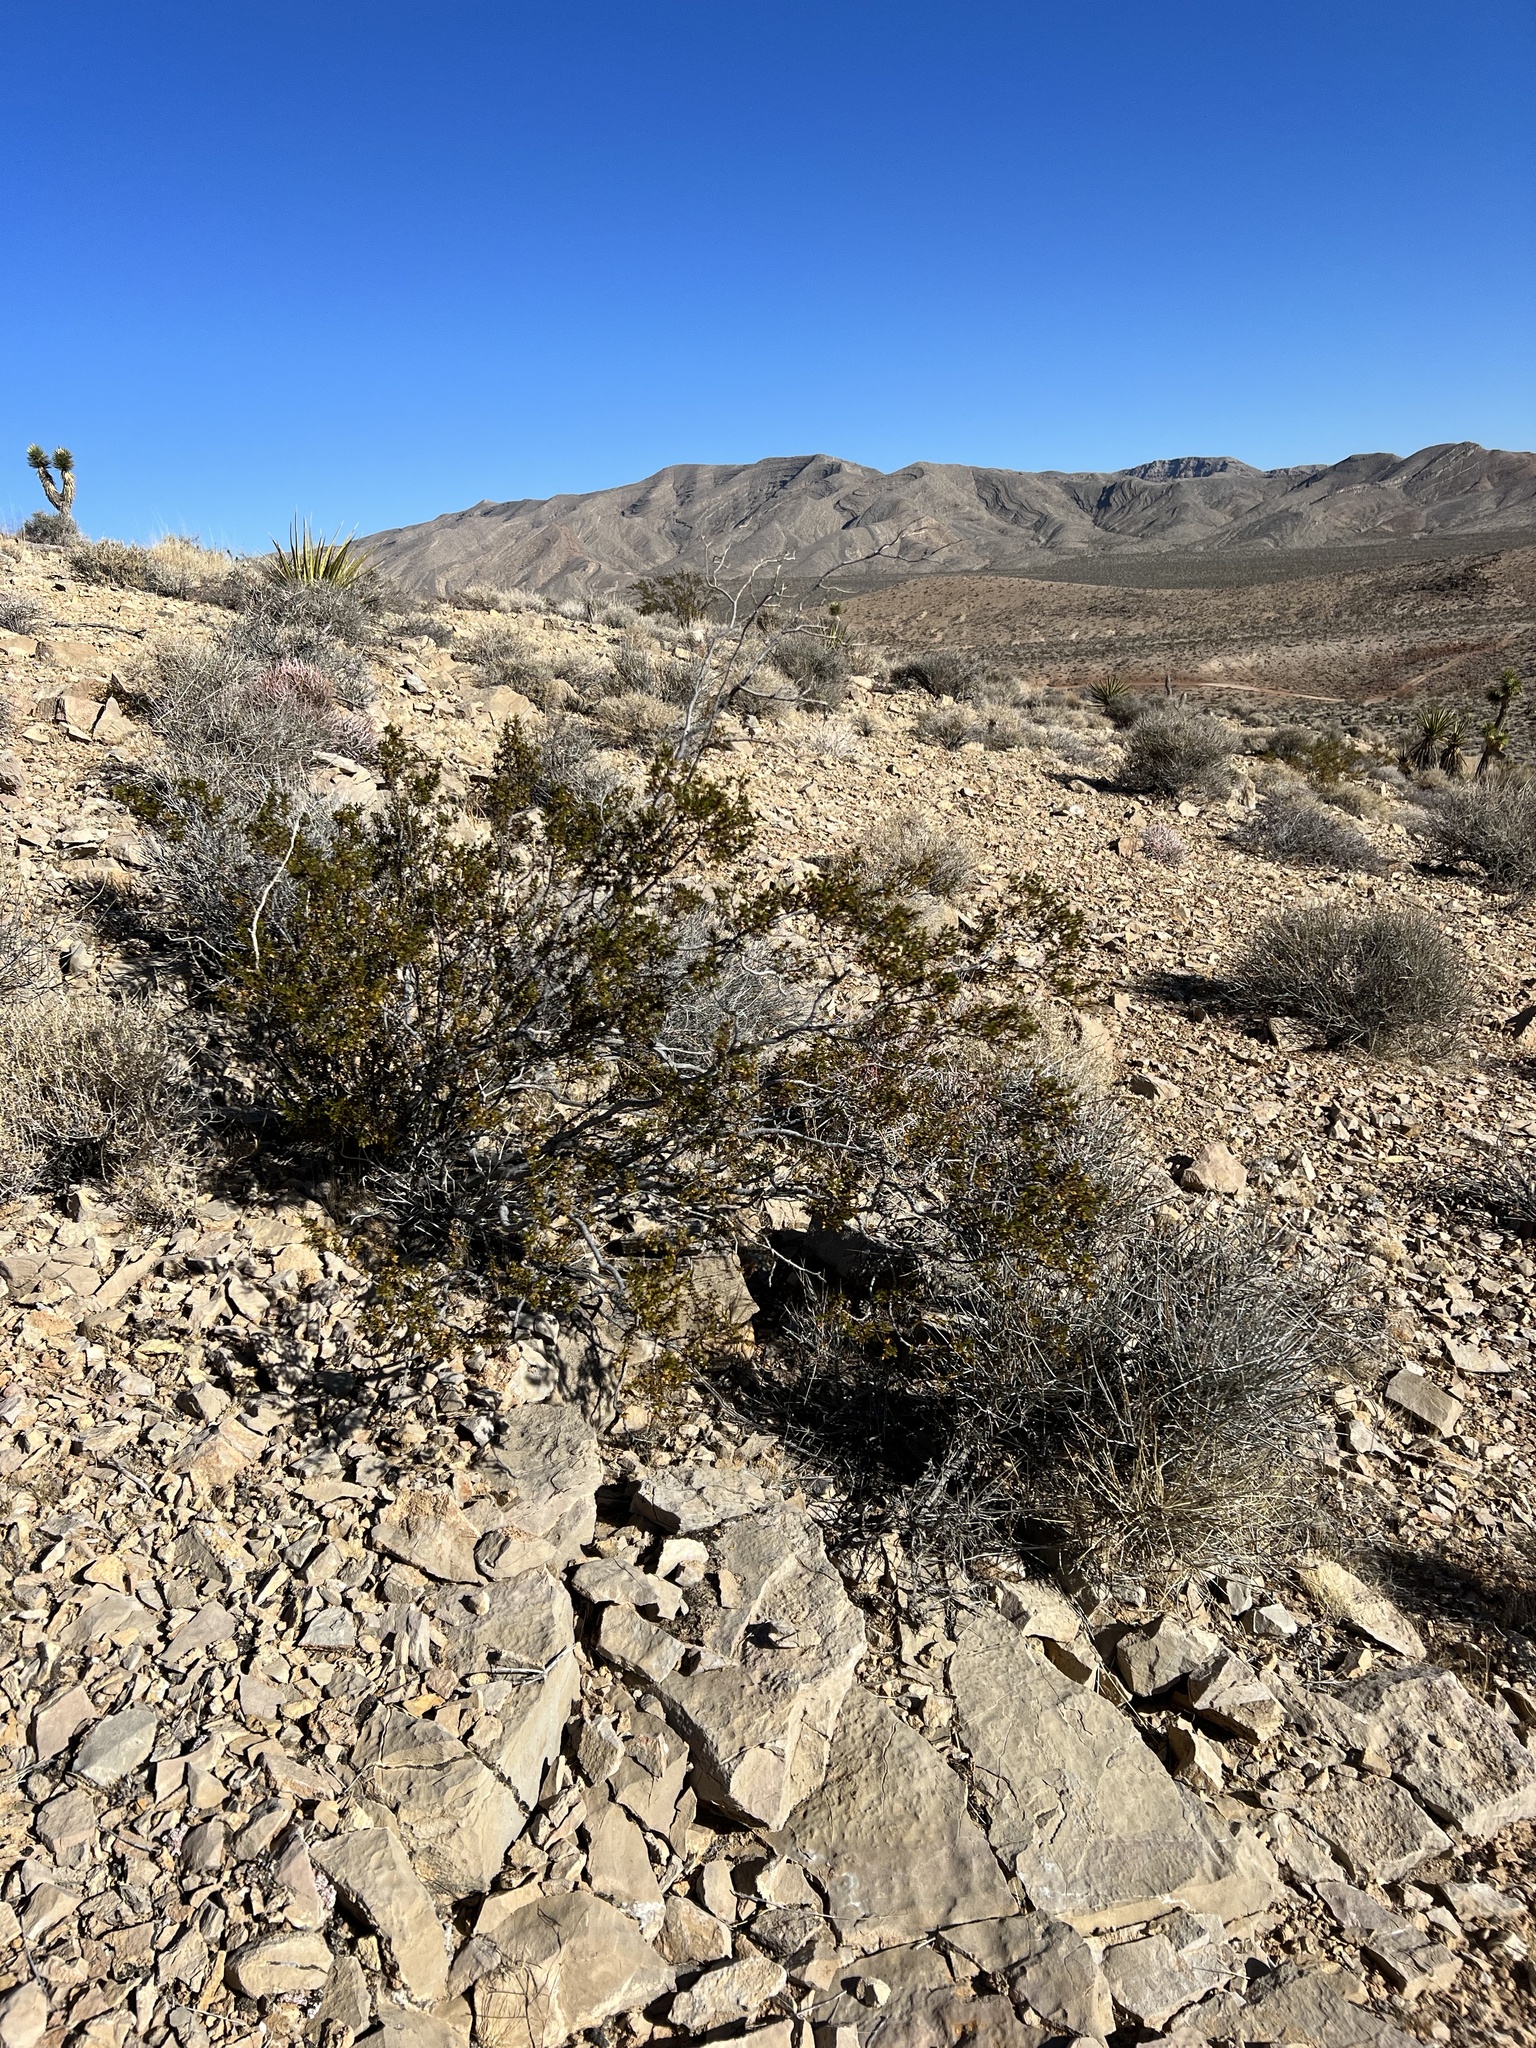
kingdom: Plantae
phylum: Tracheophyta
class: Magnoliopsida
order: Zygophyllales
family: Zygophyllaceae
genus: Larrea
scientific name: Larrea tridentata
